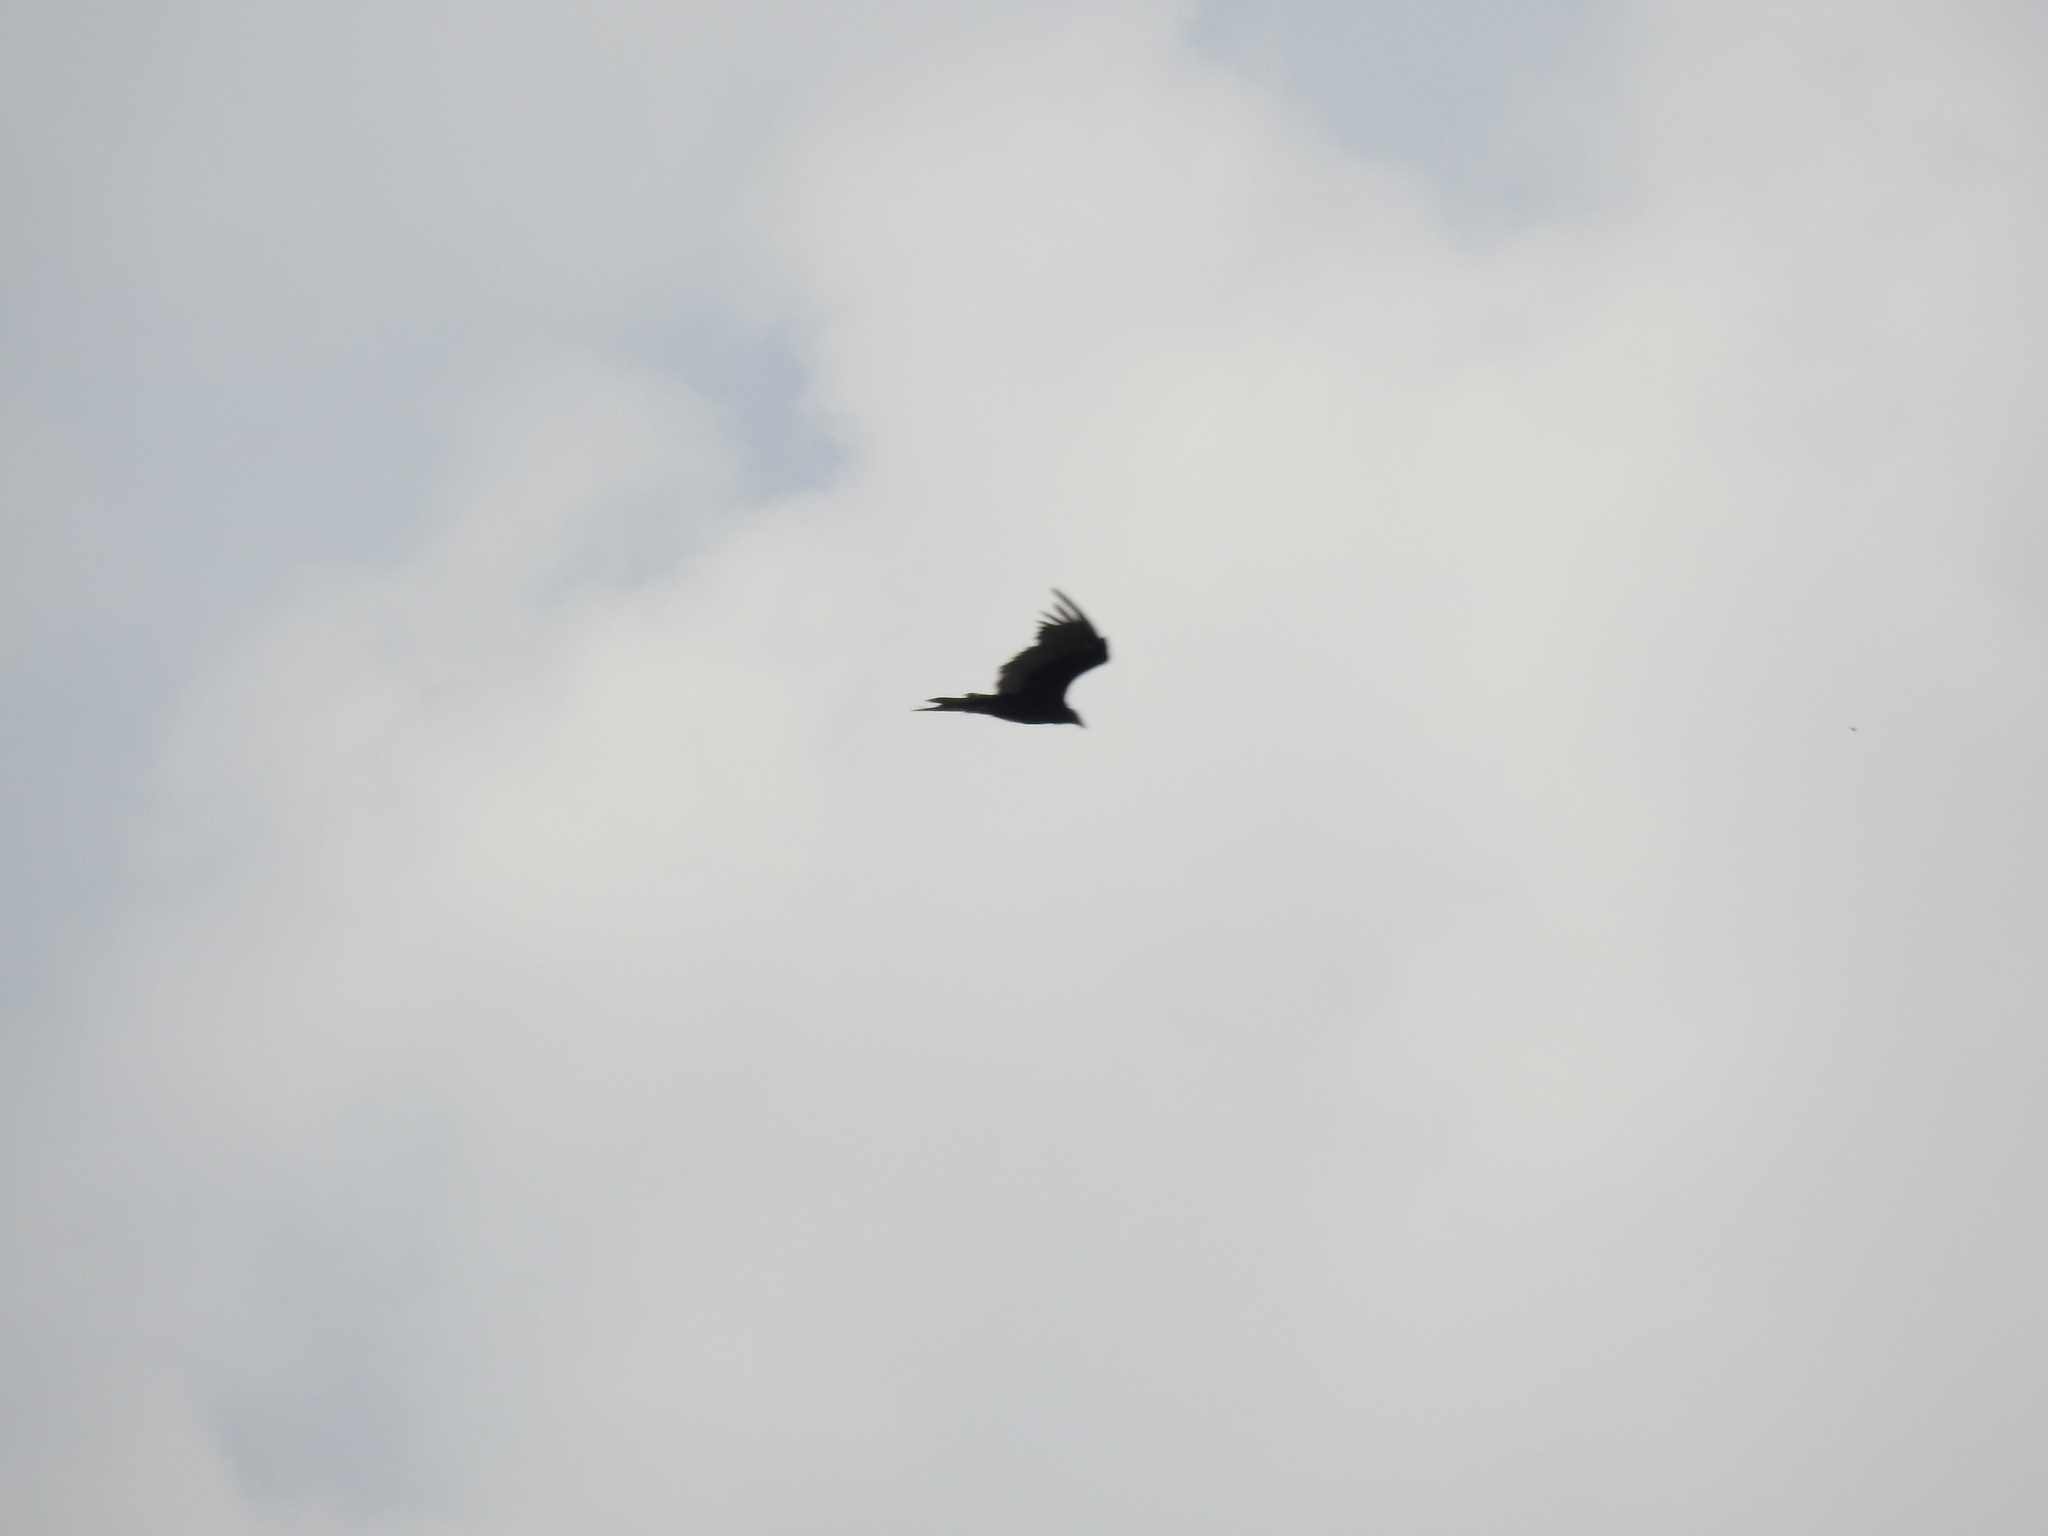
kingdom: Animalia
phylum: Chordata
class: Aves
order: Accipitriformes
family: Cathartidae
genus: Cathartes
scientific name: Cathartes aura
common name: Turkey vulture
